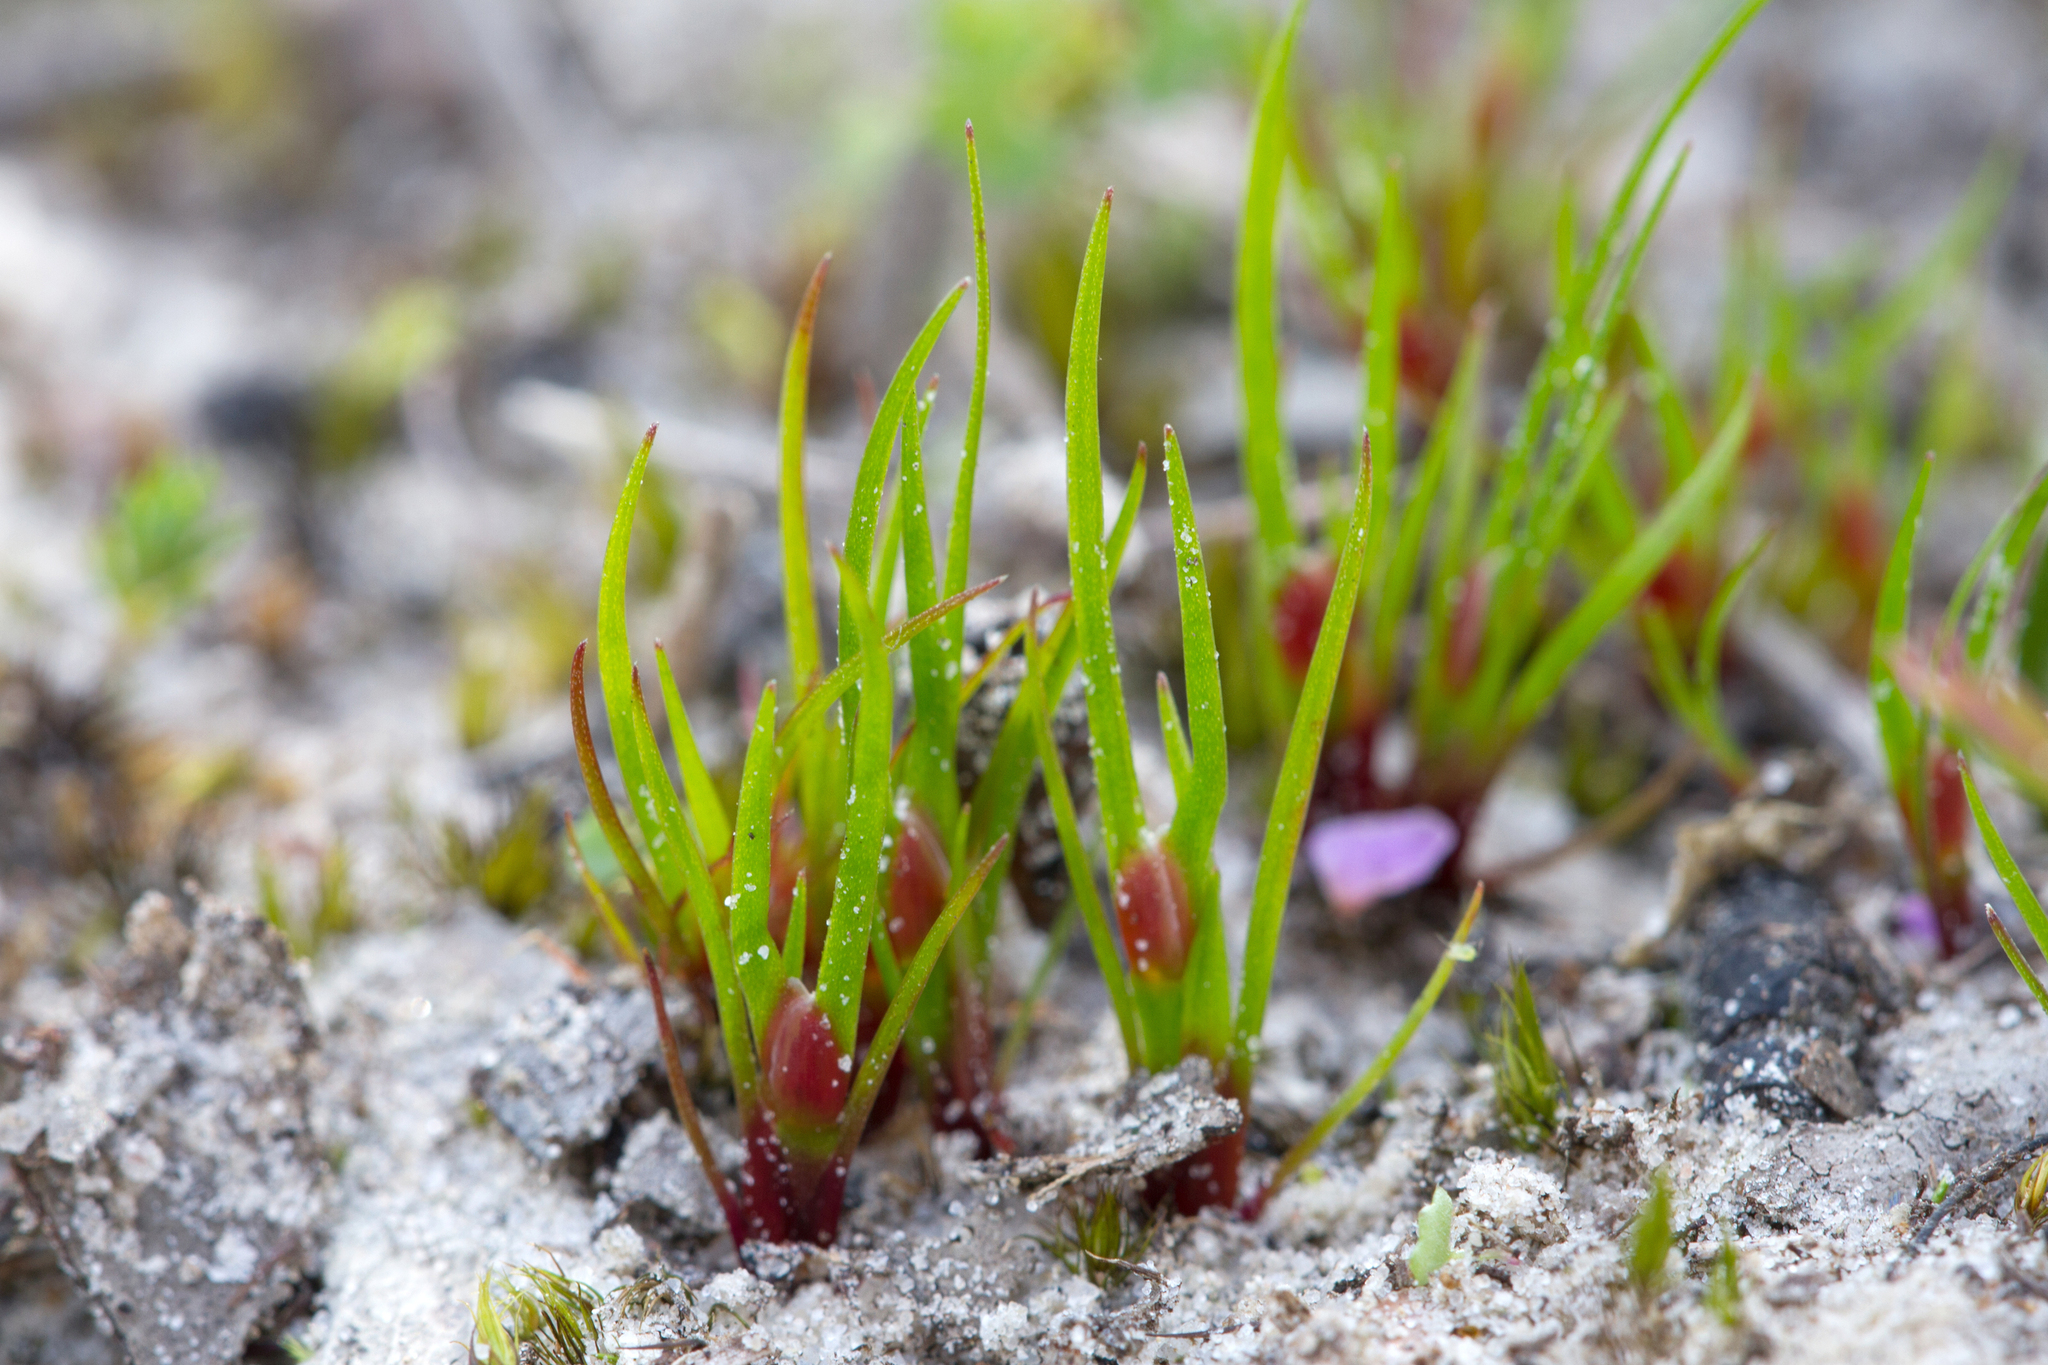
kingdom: Plantae
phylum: Tracheophyta
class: Liliopsida
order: Poales
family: Restionaceae
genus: Centrolepis
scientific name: Centrolepis aristata
